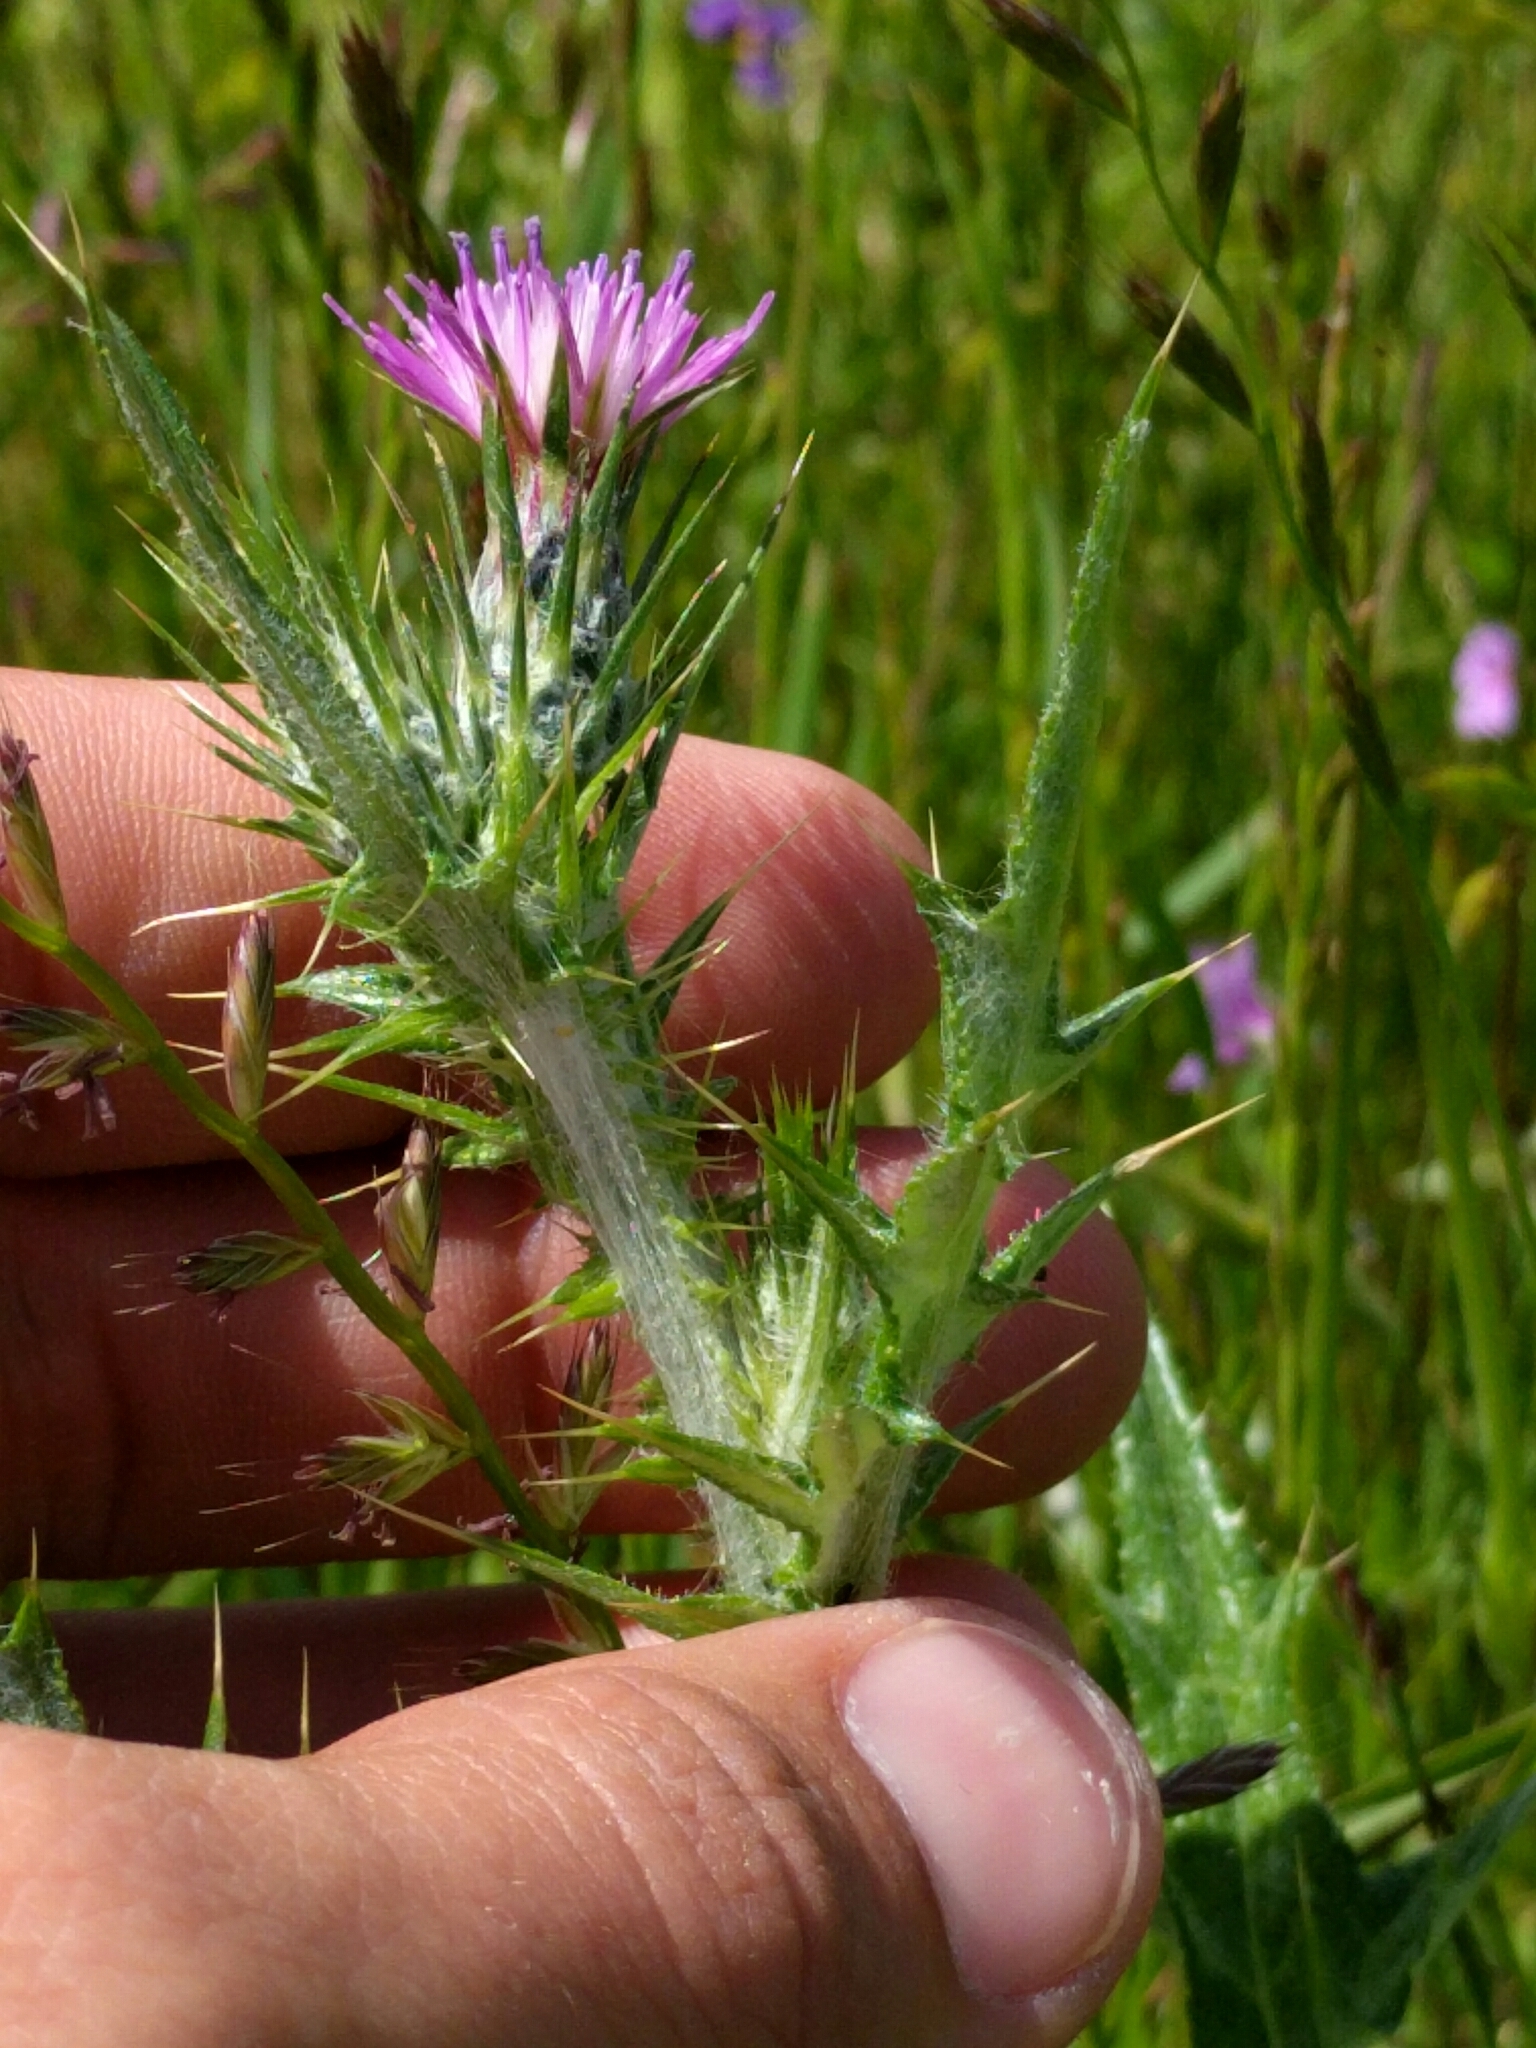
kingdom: Plantae
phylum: Tracheophyta
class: Magnoliopsida
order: Asterales
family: Asteraceae
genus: Carduus
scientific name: Carduus pycnocephalus
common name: Plymouth thistle
